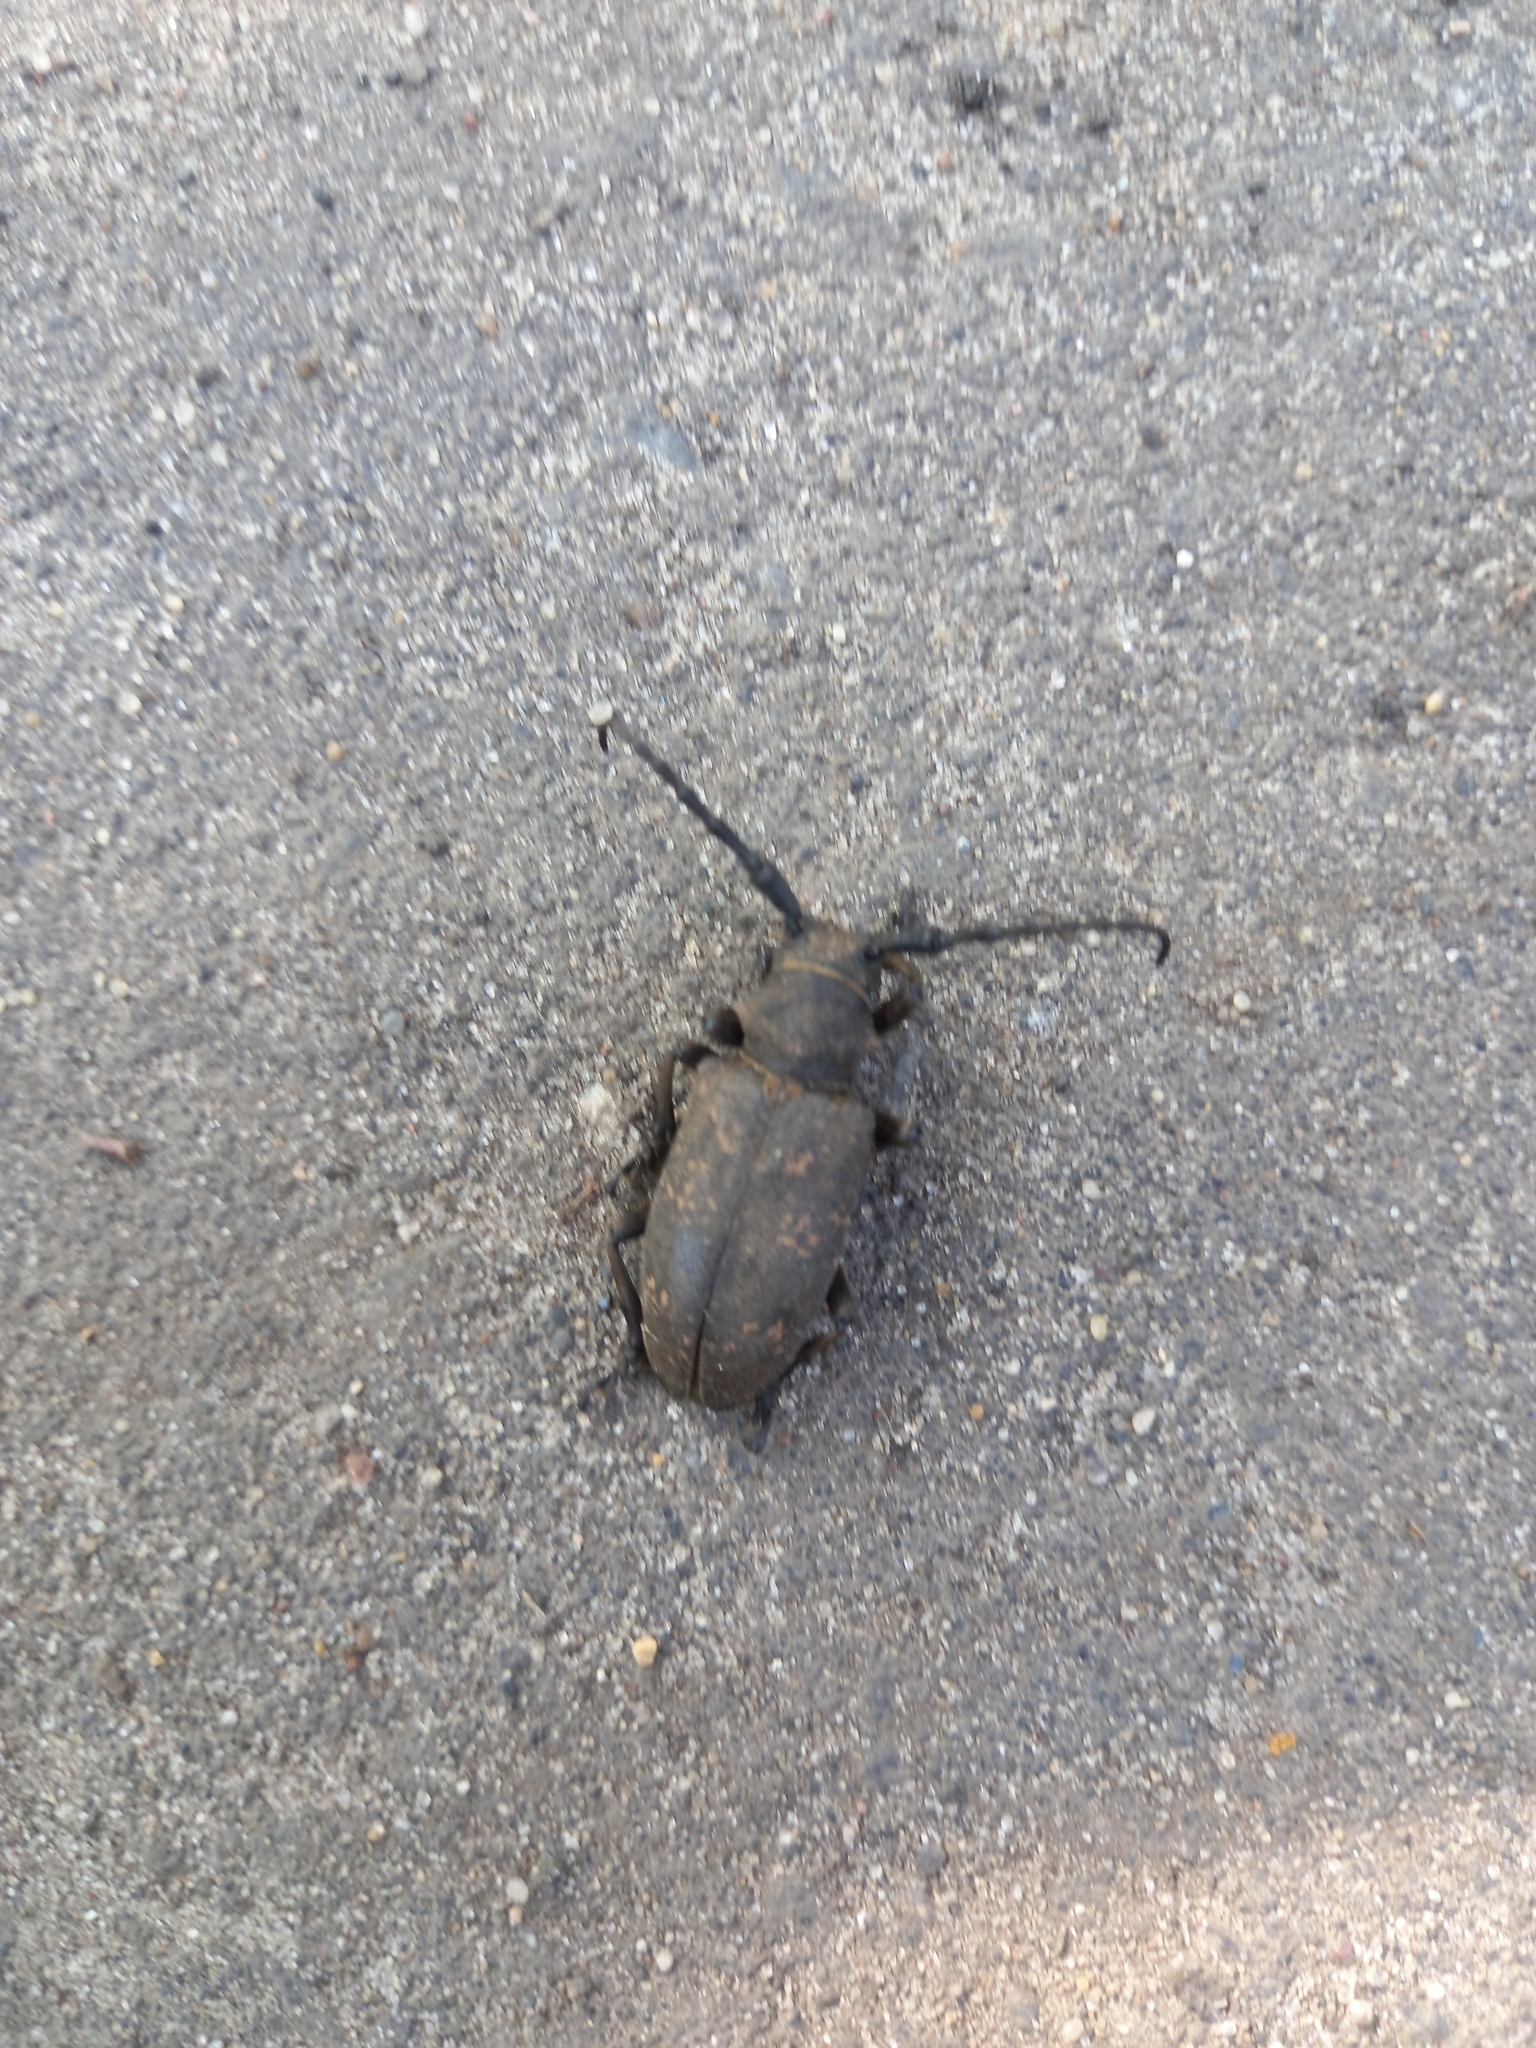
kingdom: Animalia
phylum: Arthropoda
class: Insecta
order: Coleoptera
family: Cerambycidae
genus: Lamia
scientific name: Lamia textor
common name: Weaver beetle
